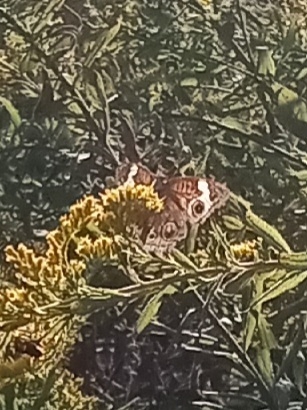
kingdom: Animalia
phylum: Arthropoda
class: Insecta
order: Lepidoptera
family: Nymphalidae
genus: Junonia
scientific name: Junonia coenia
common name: Common buckeye
